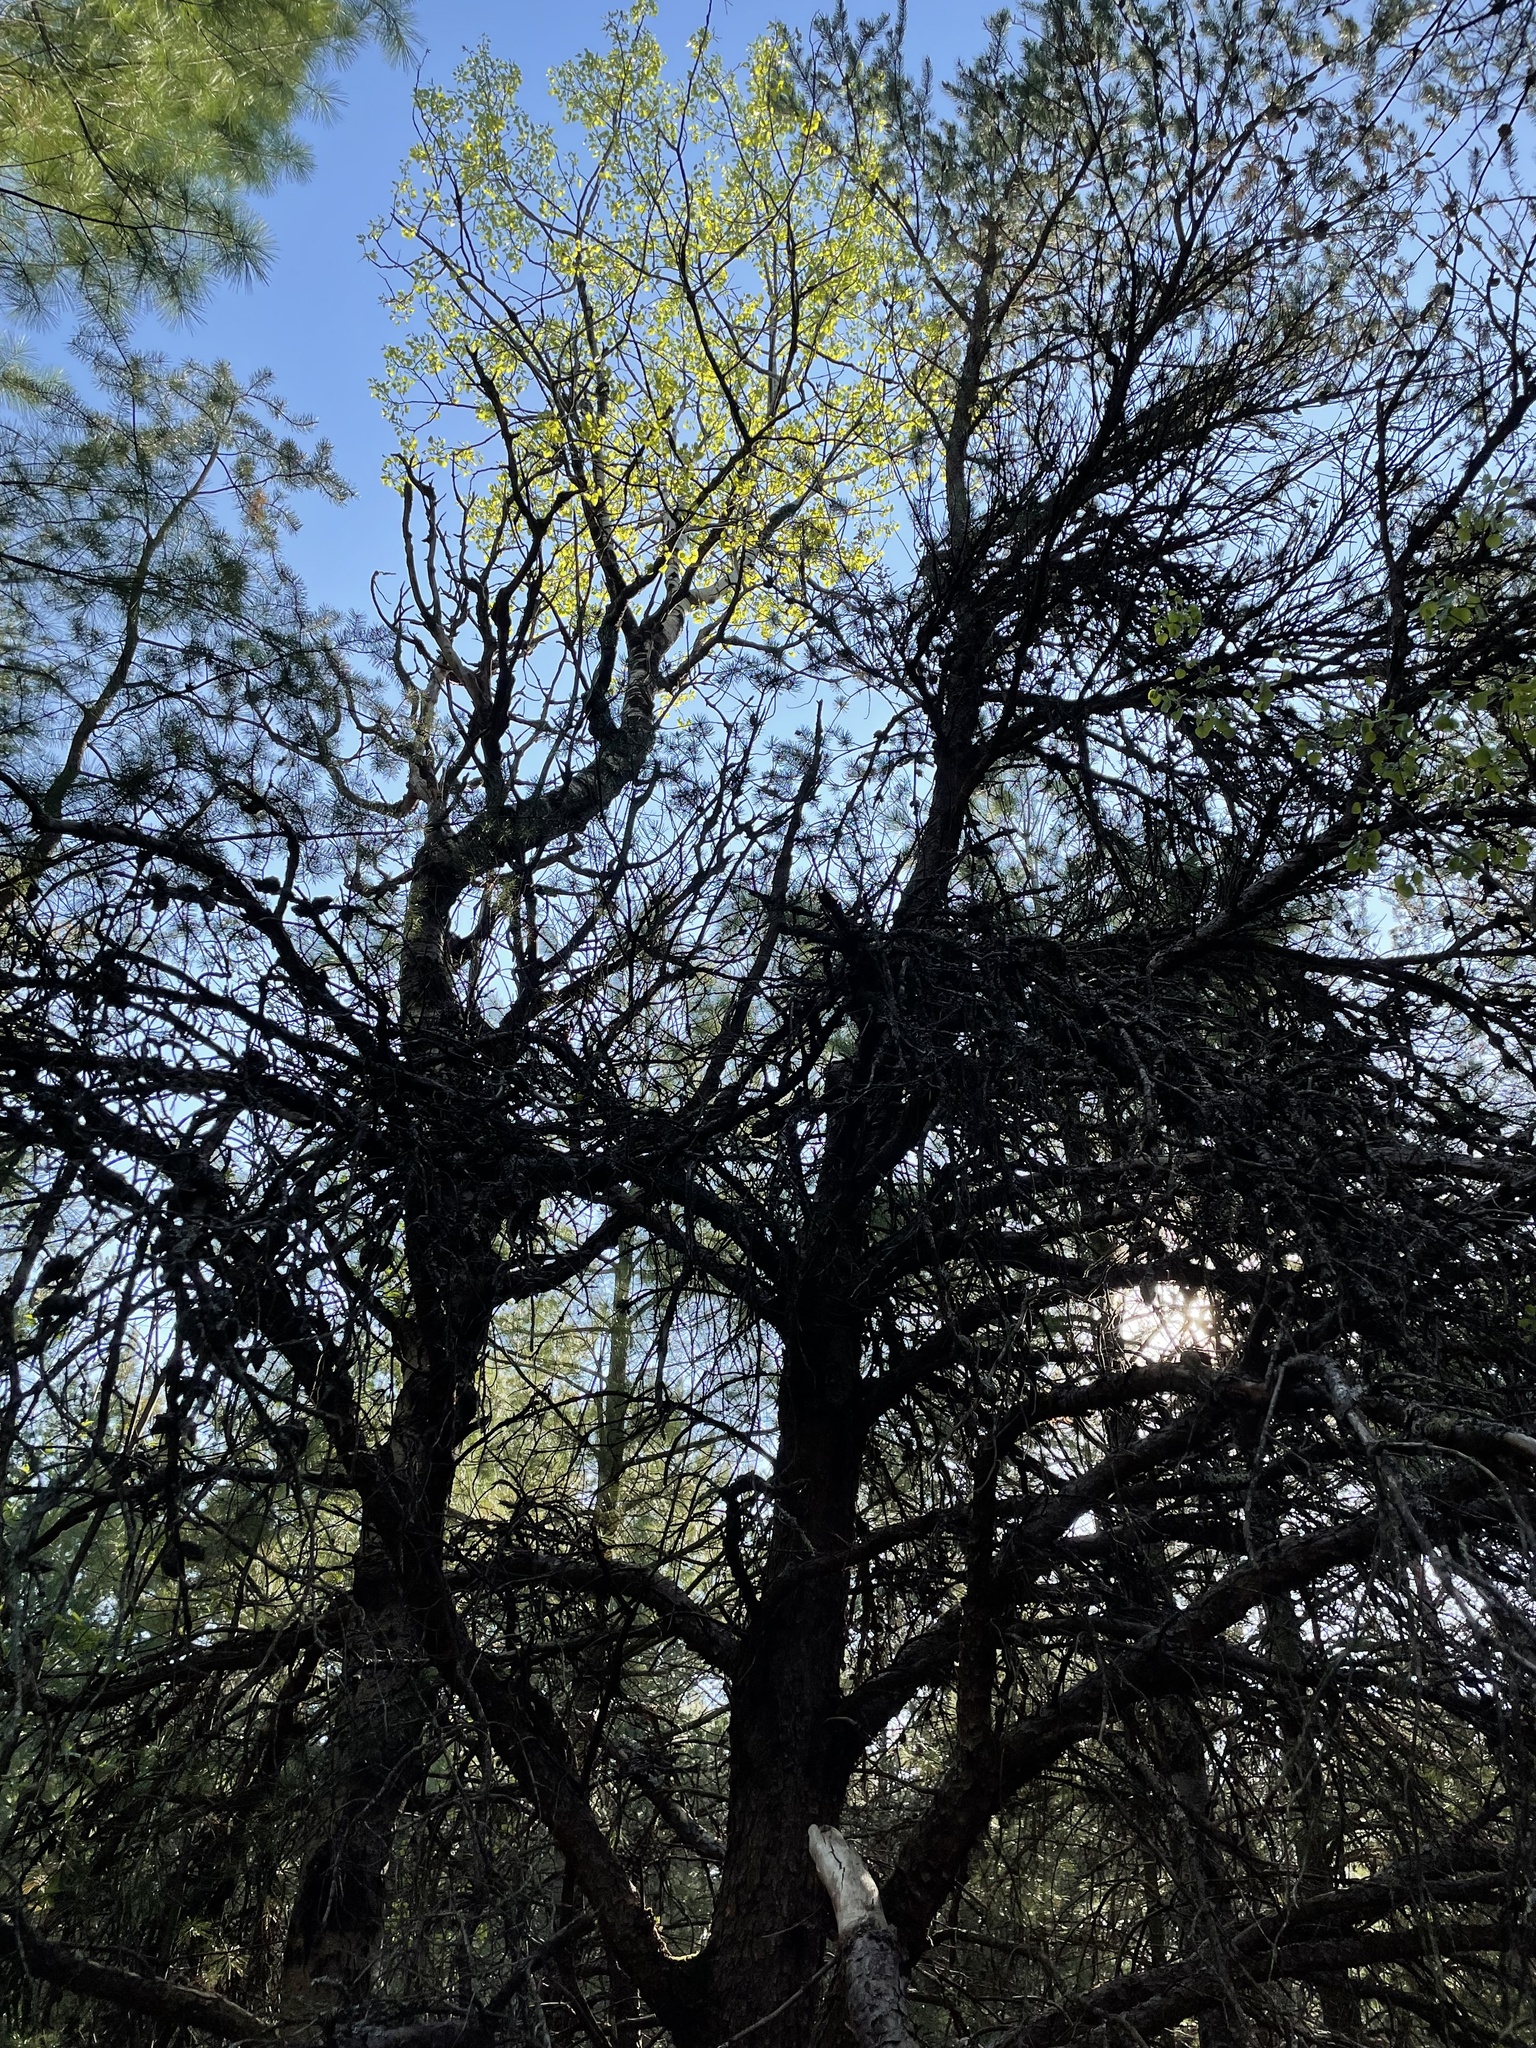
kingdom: Plantae
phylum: Tracheophyta
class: Pinopsida
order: Pinales
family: Pinaceae
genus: Pinus
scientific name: Pinus banksiana
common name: Jack pine
